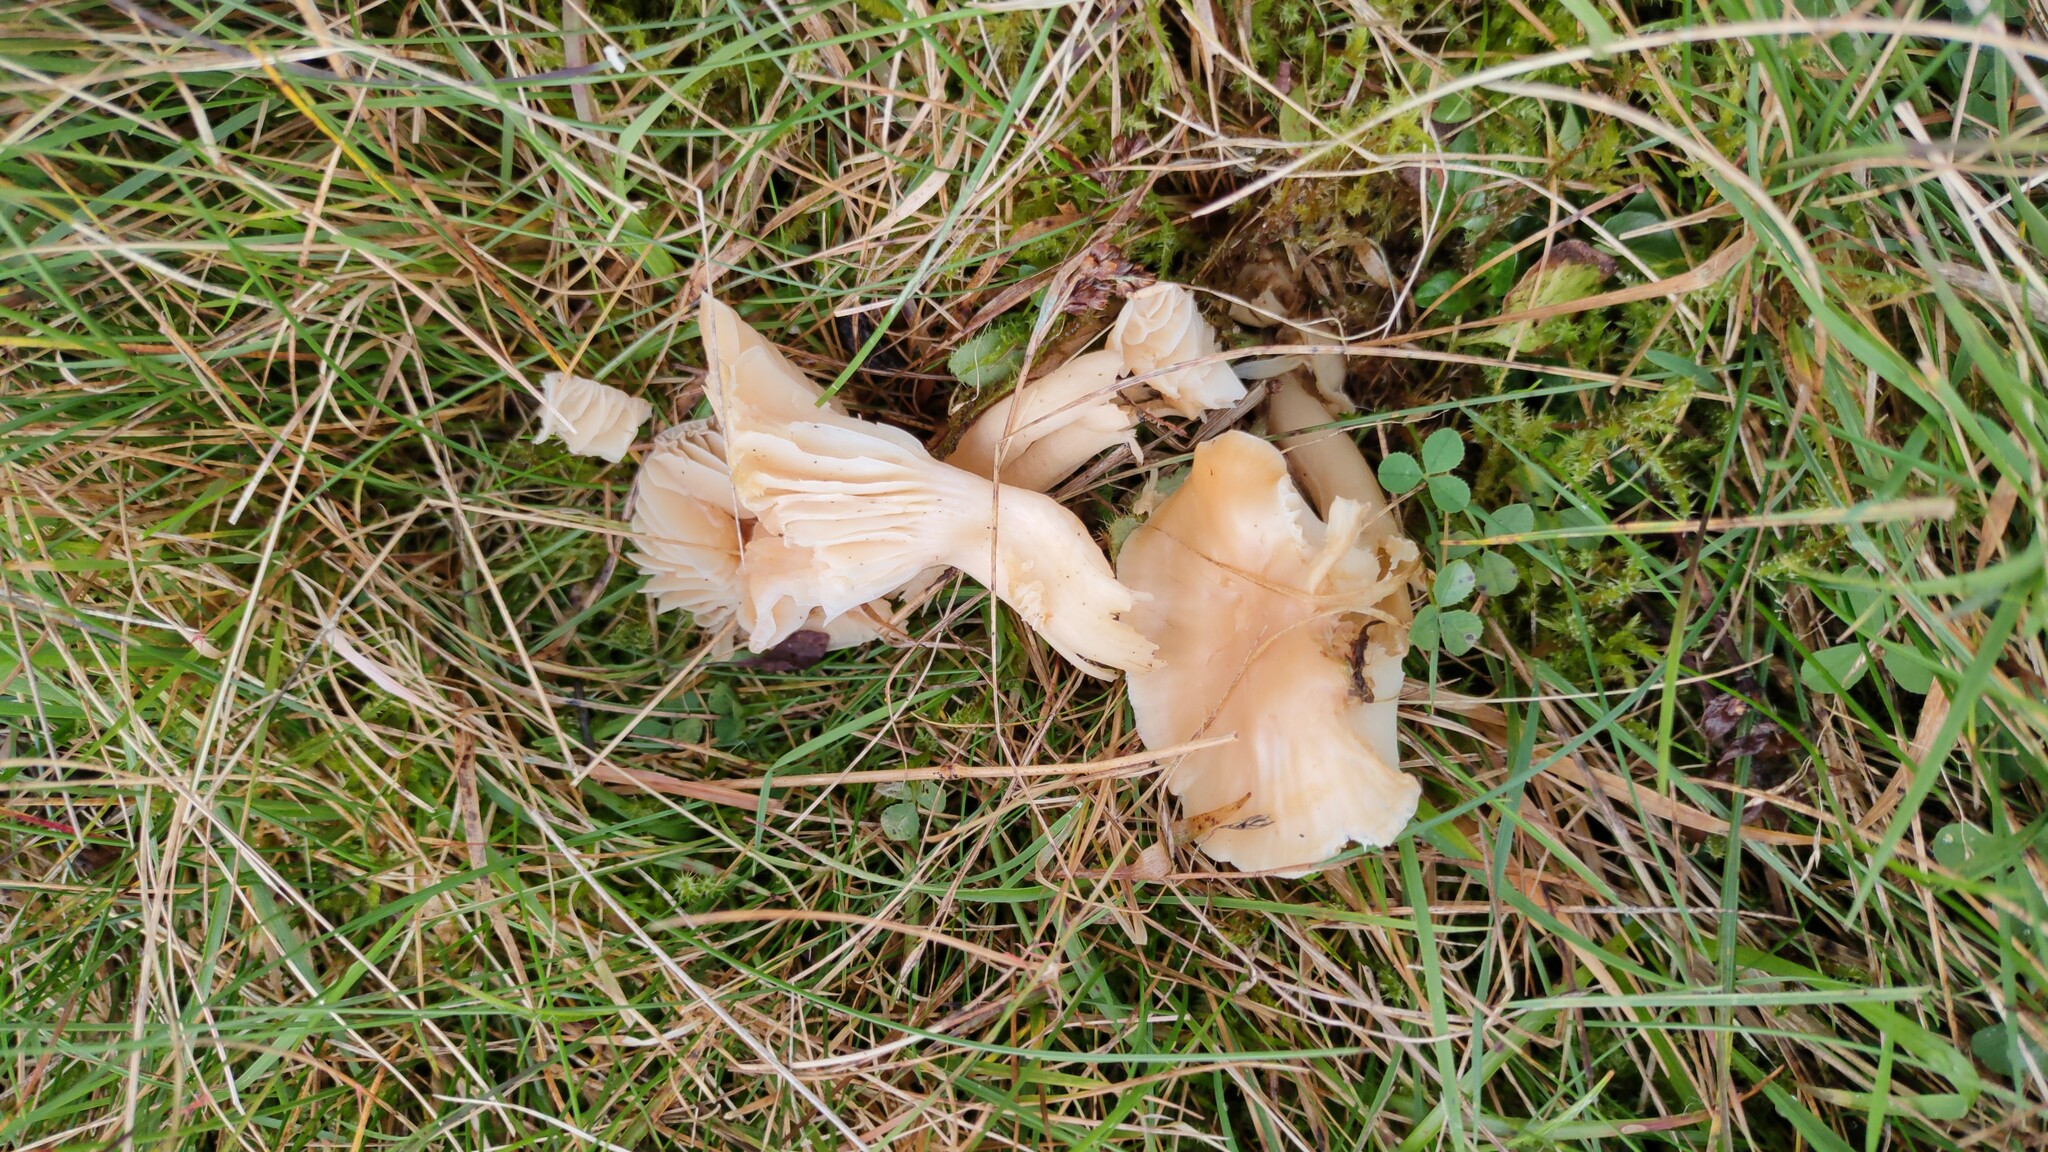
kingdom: Fungi
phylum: Basidiomycota
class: Agaricomycetes
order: Agaricales
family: Hygrophoraceae
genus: Cuphophyllus
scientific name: Cuphophyllus pratensis
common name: Meadow waxcap
